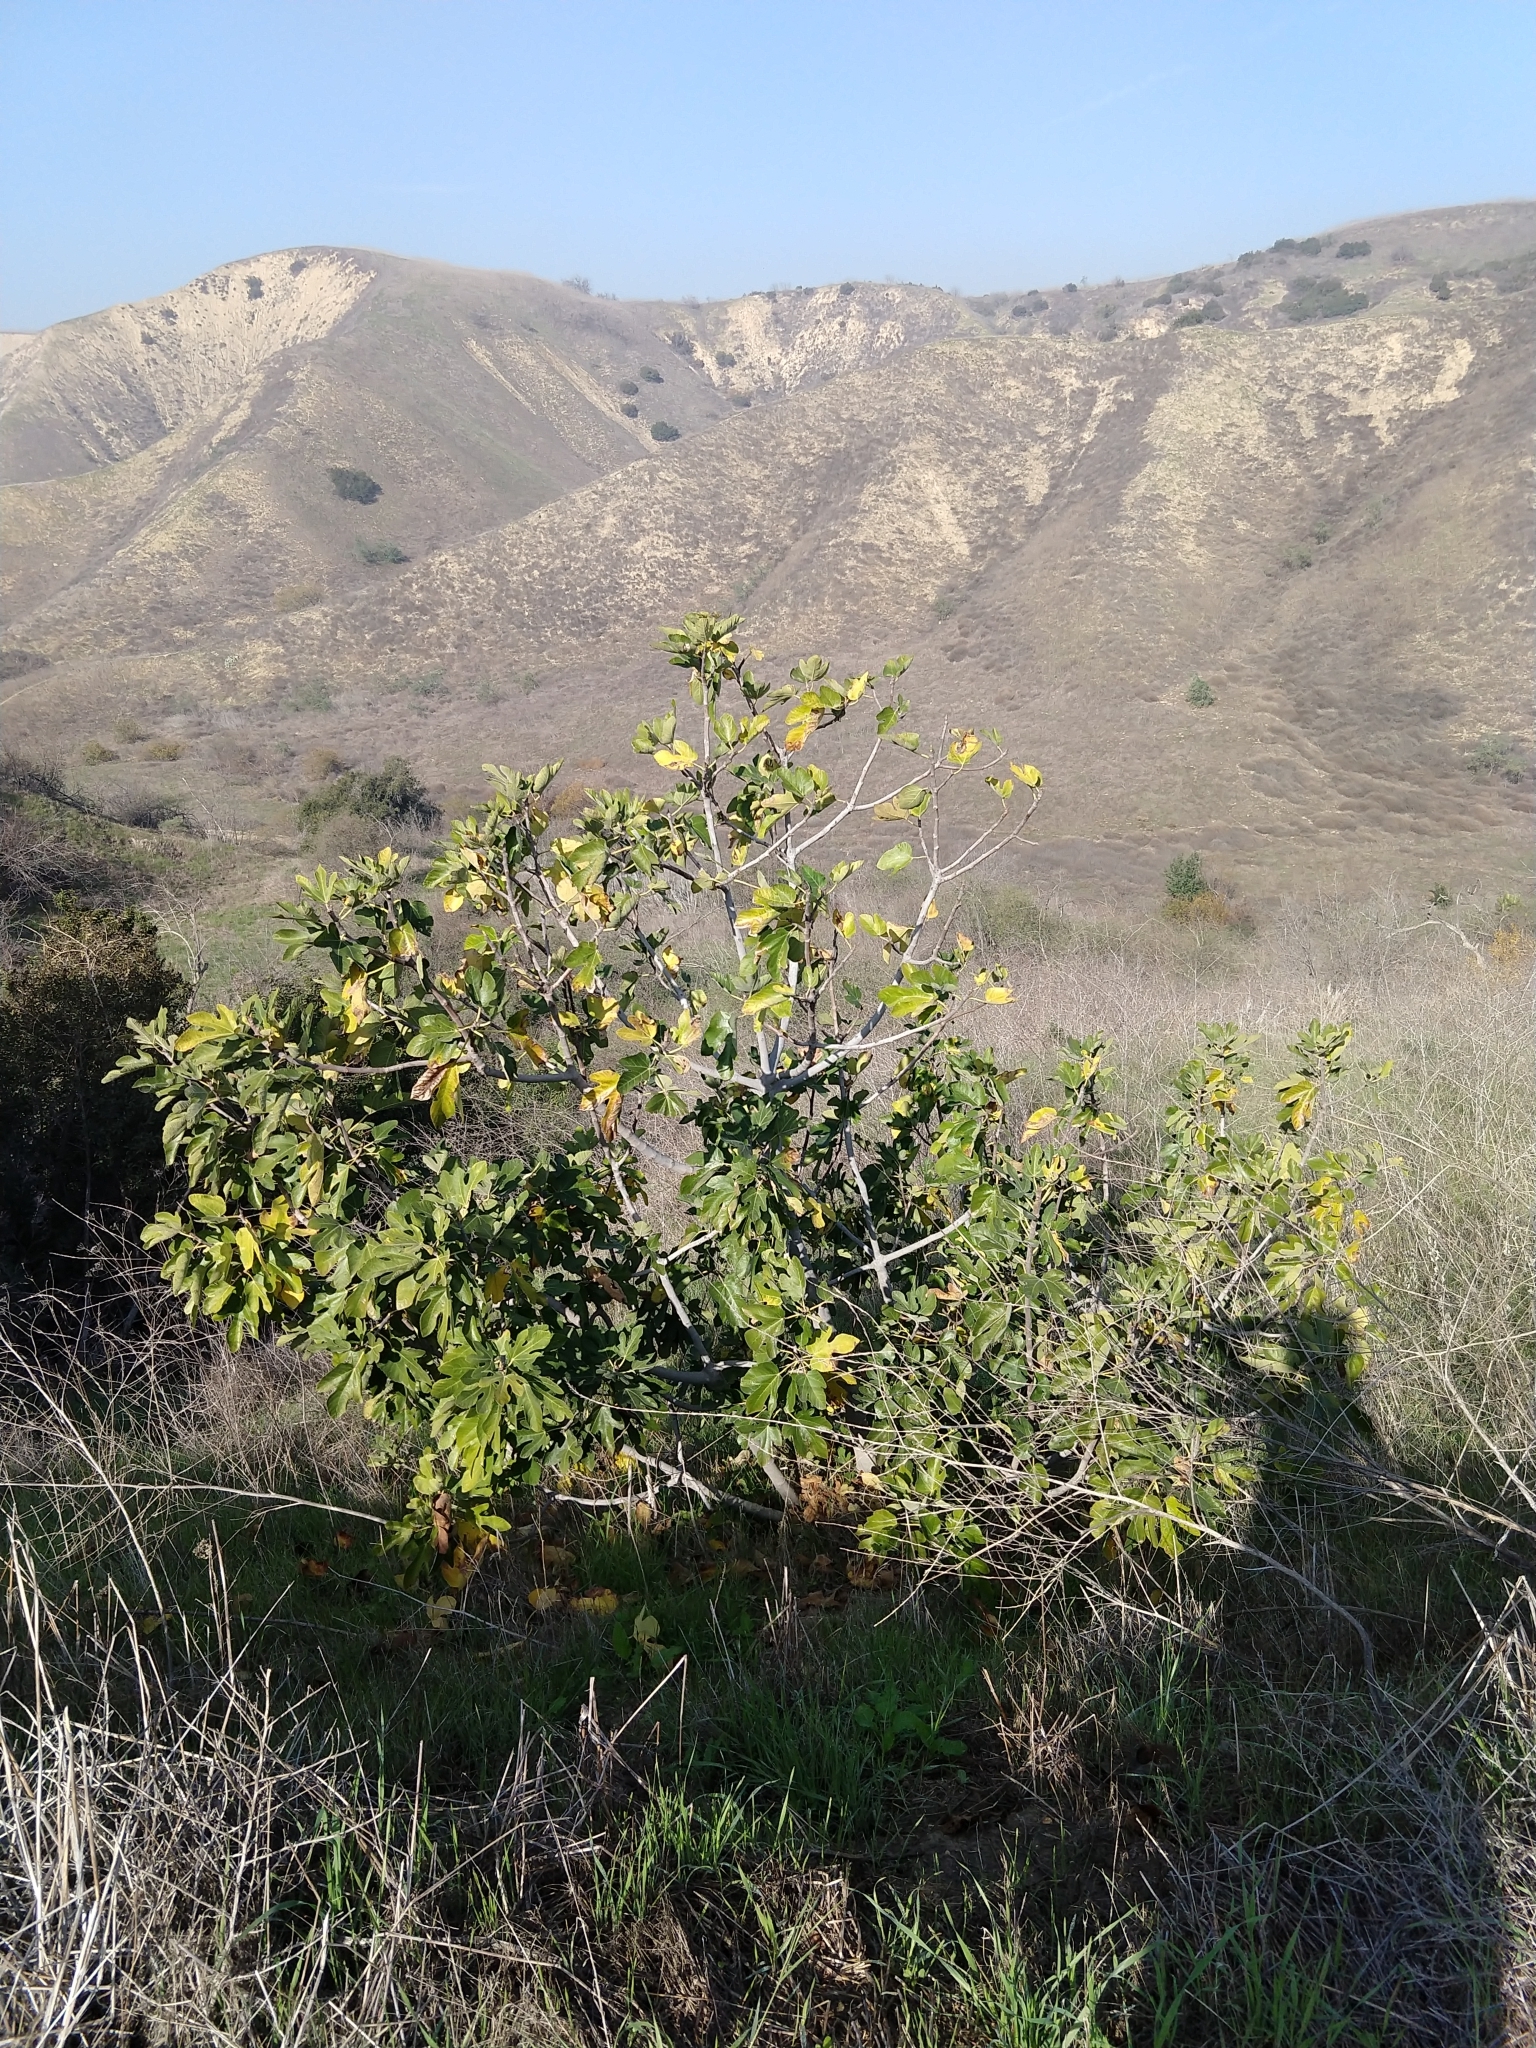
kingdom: Plantae
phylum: Tracheophyta
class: Magnoliopsida
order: Rosales
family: Moraceae
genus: Ficus
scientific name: Ficus carica
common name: Fig
